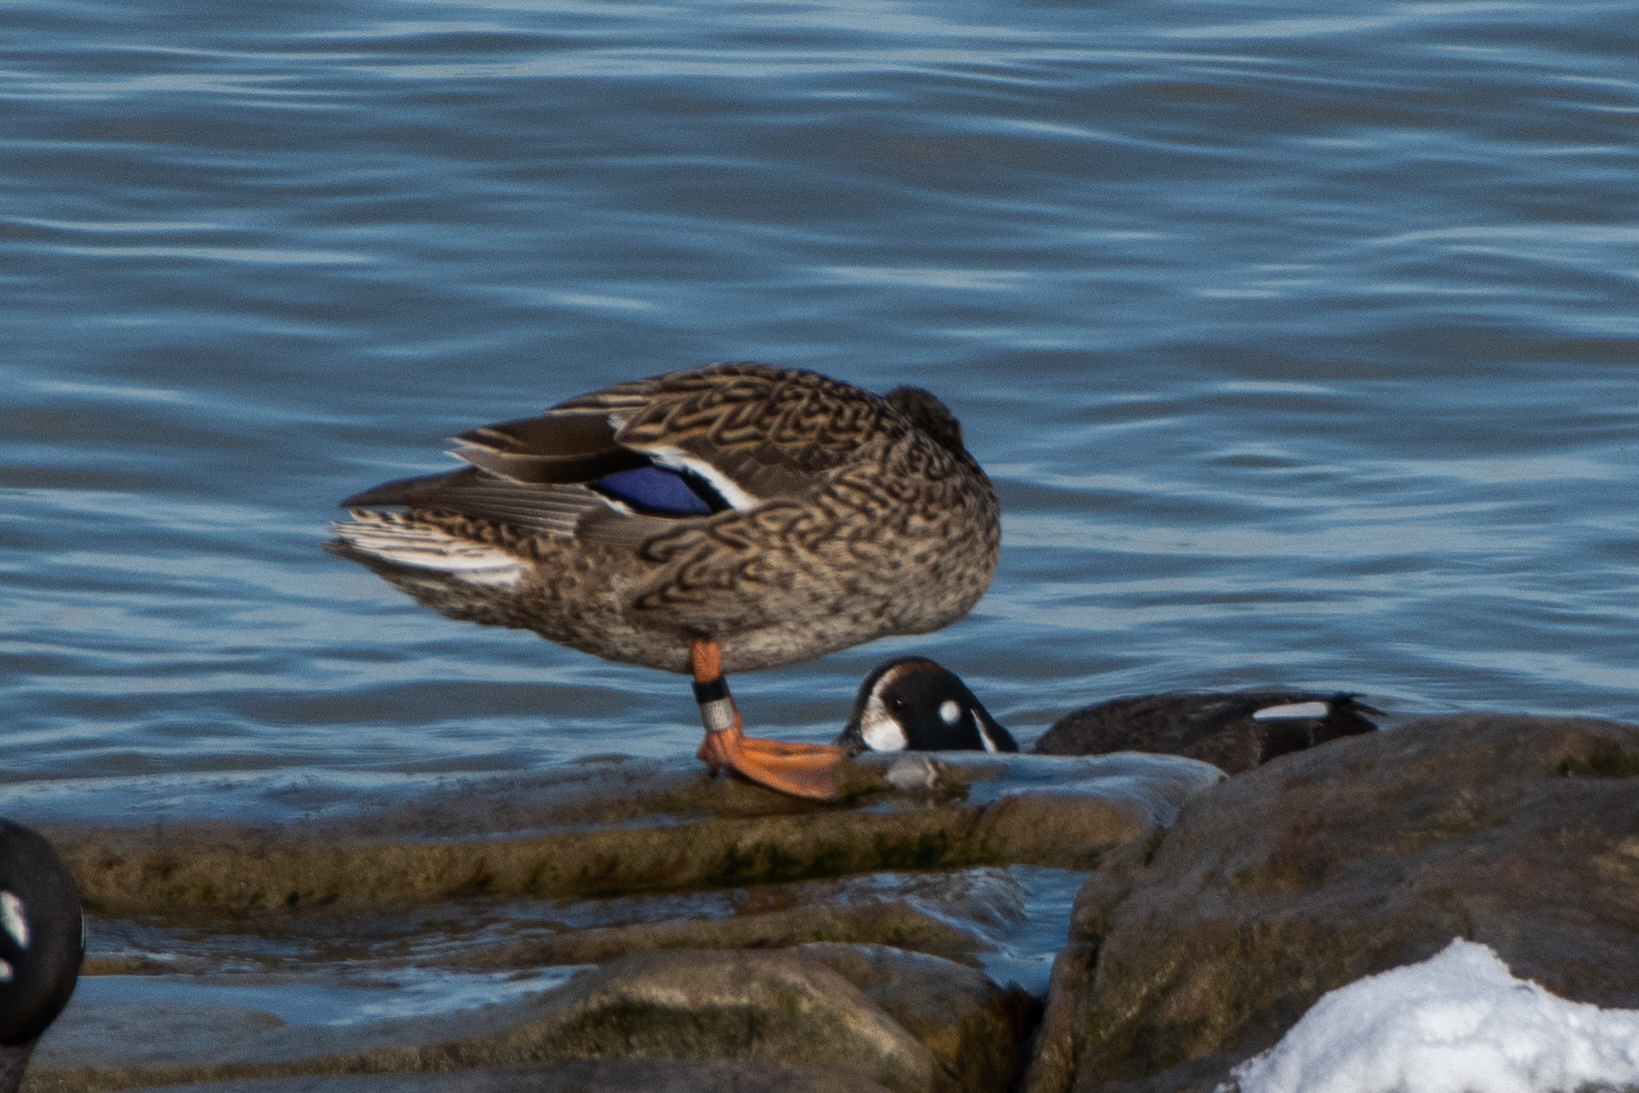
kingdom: Animalia
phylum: Chordata
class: Aves
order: Anseriformes
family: Anatidae
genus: Anas
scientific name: Anas platyrhynchos
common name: Mallard
